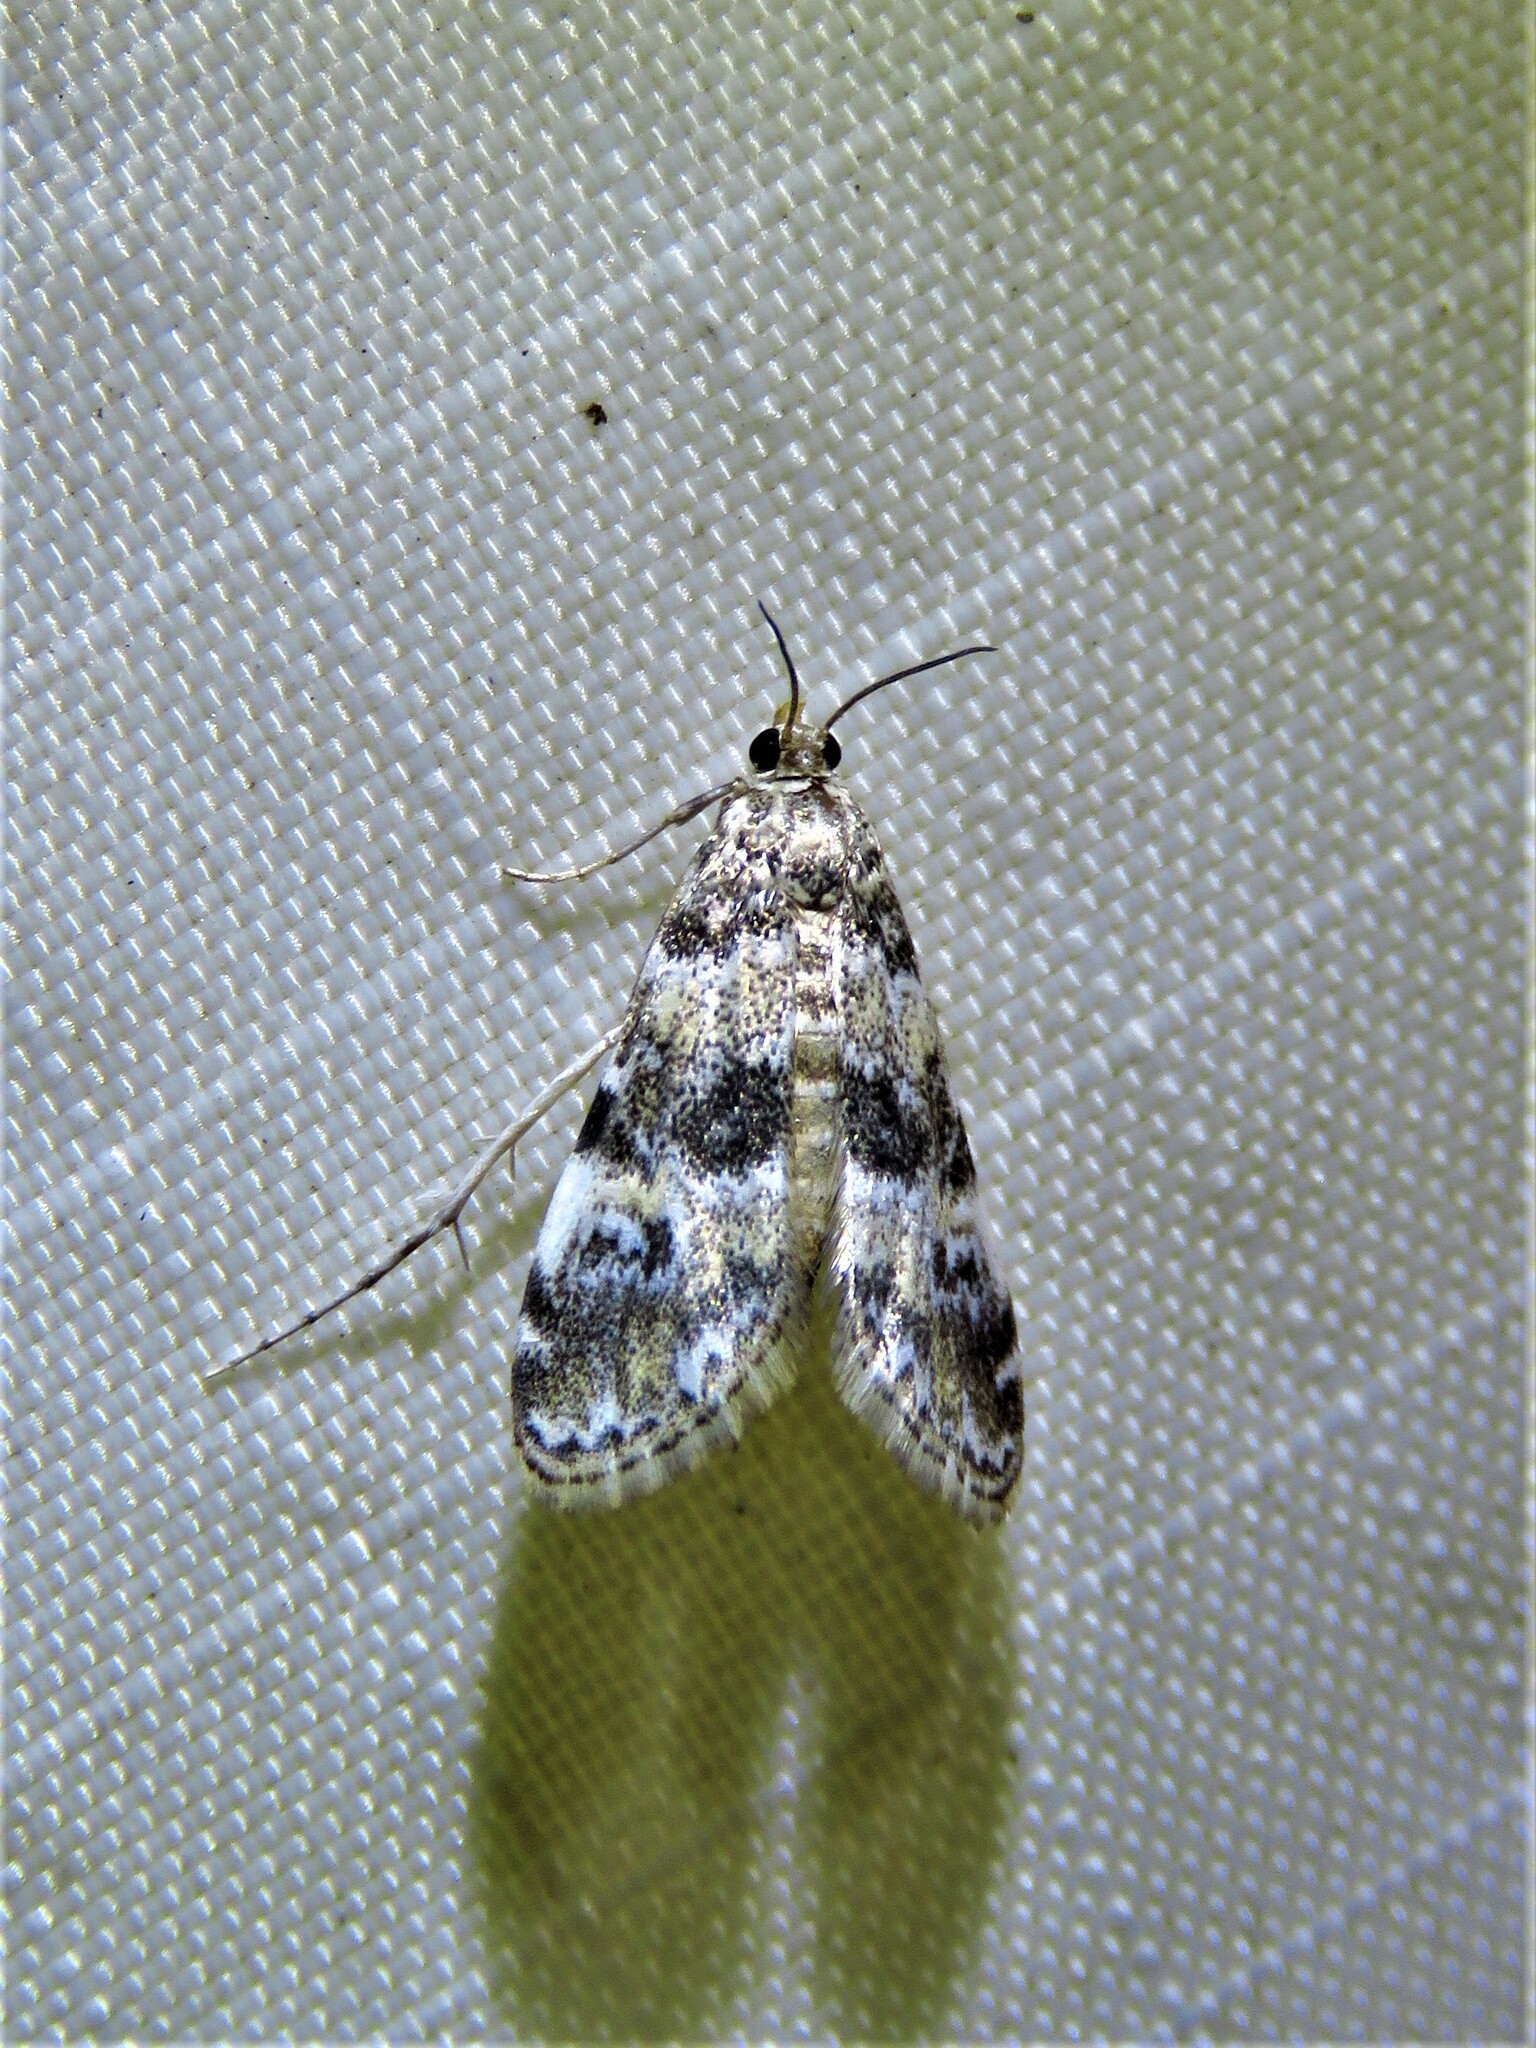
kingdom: Animalia
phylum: Arthropoda
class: Insecta
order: Lepidoptera
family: Crambidae
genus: Elophila
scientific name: Elophila obliteralis
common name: Waterlily leafcutter moth
